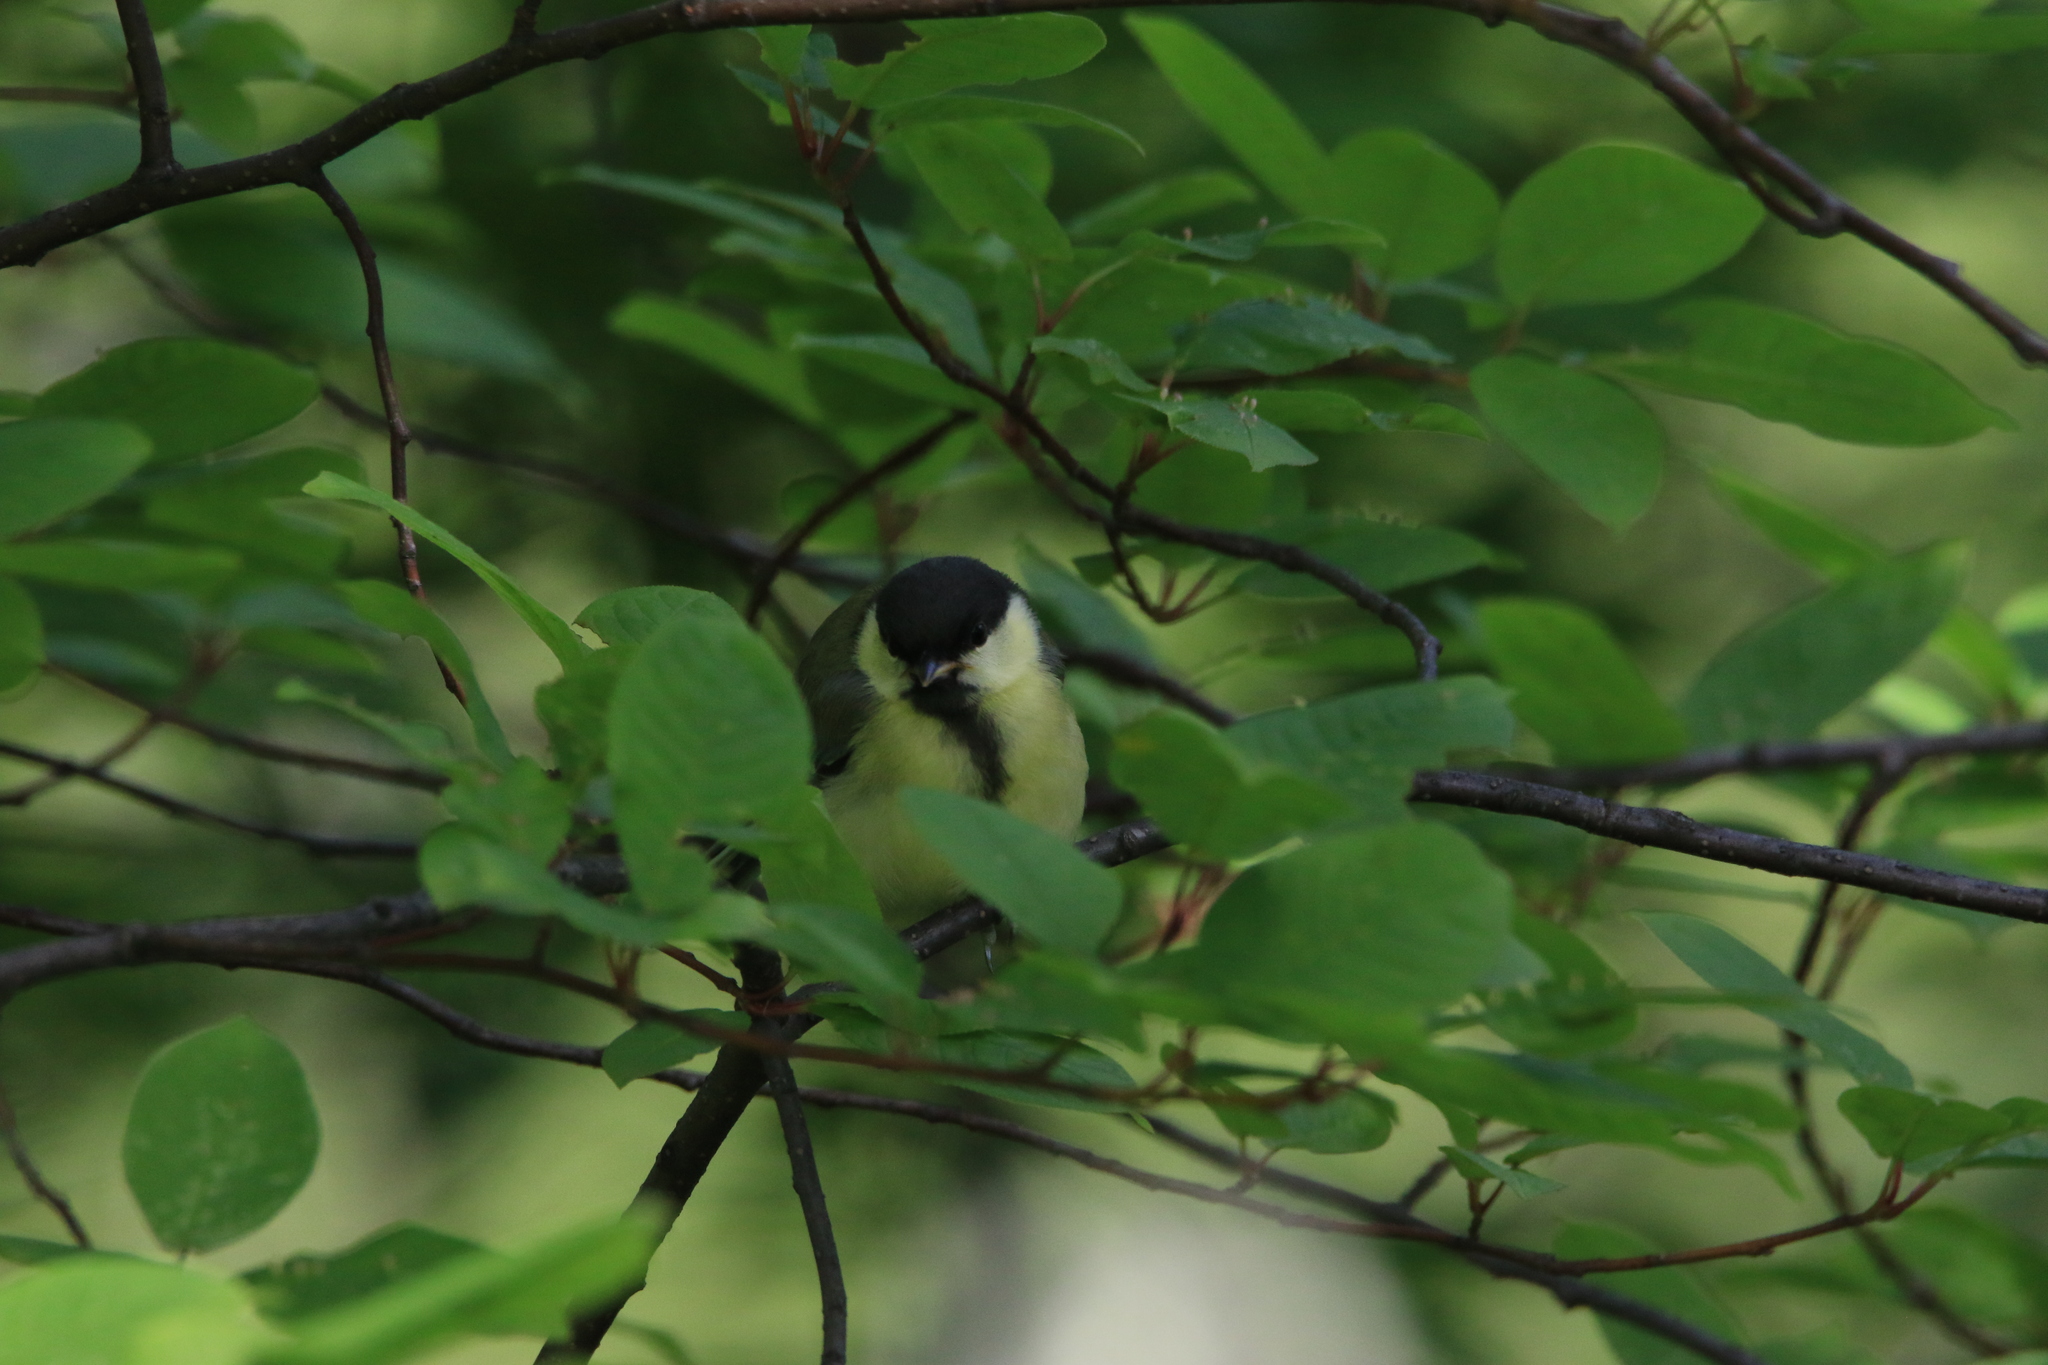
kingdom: Animalia
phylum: Chordata
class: Aves
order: Passeriformes
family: Paridae
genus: Parus
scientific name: Parus major
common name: Great tit
